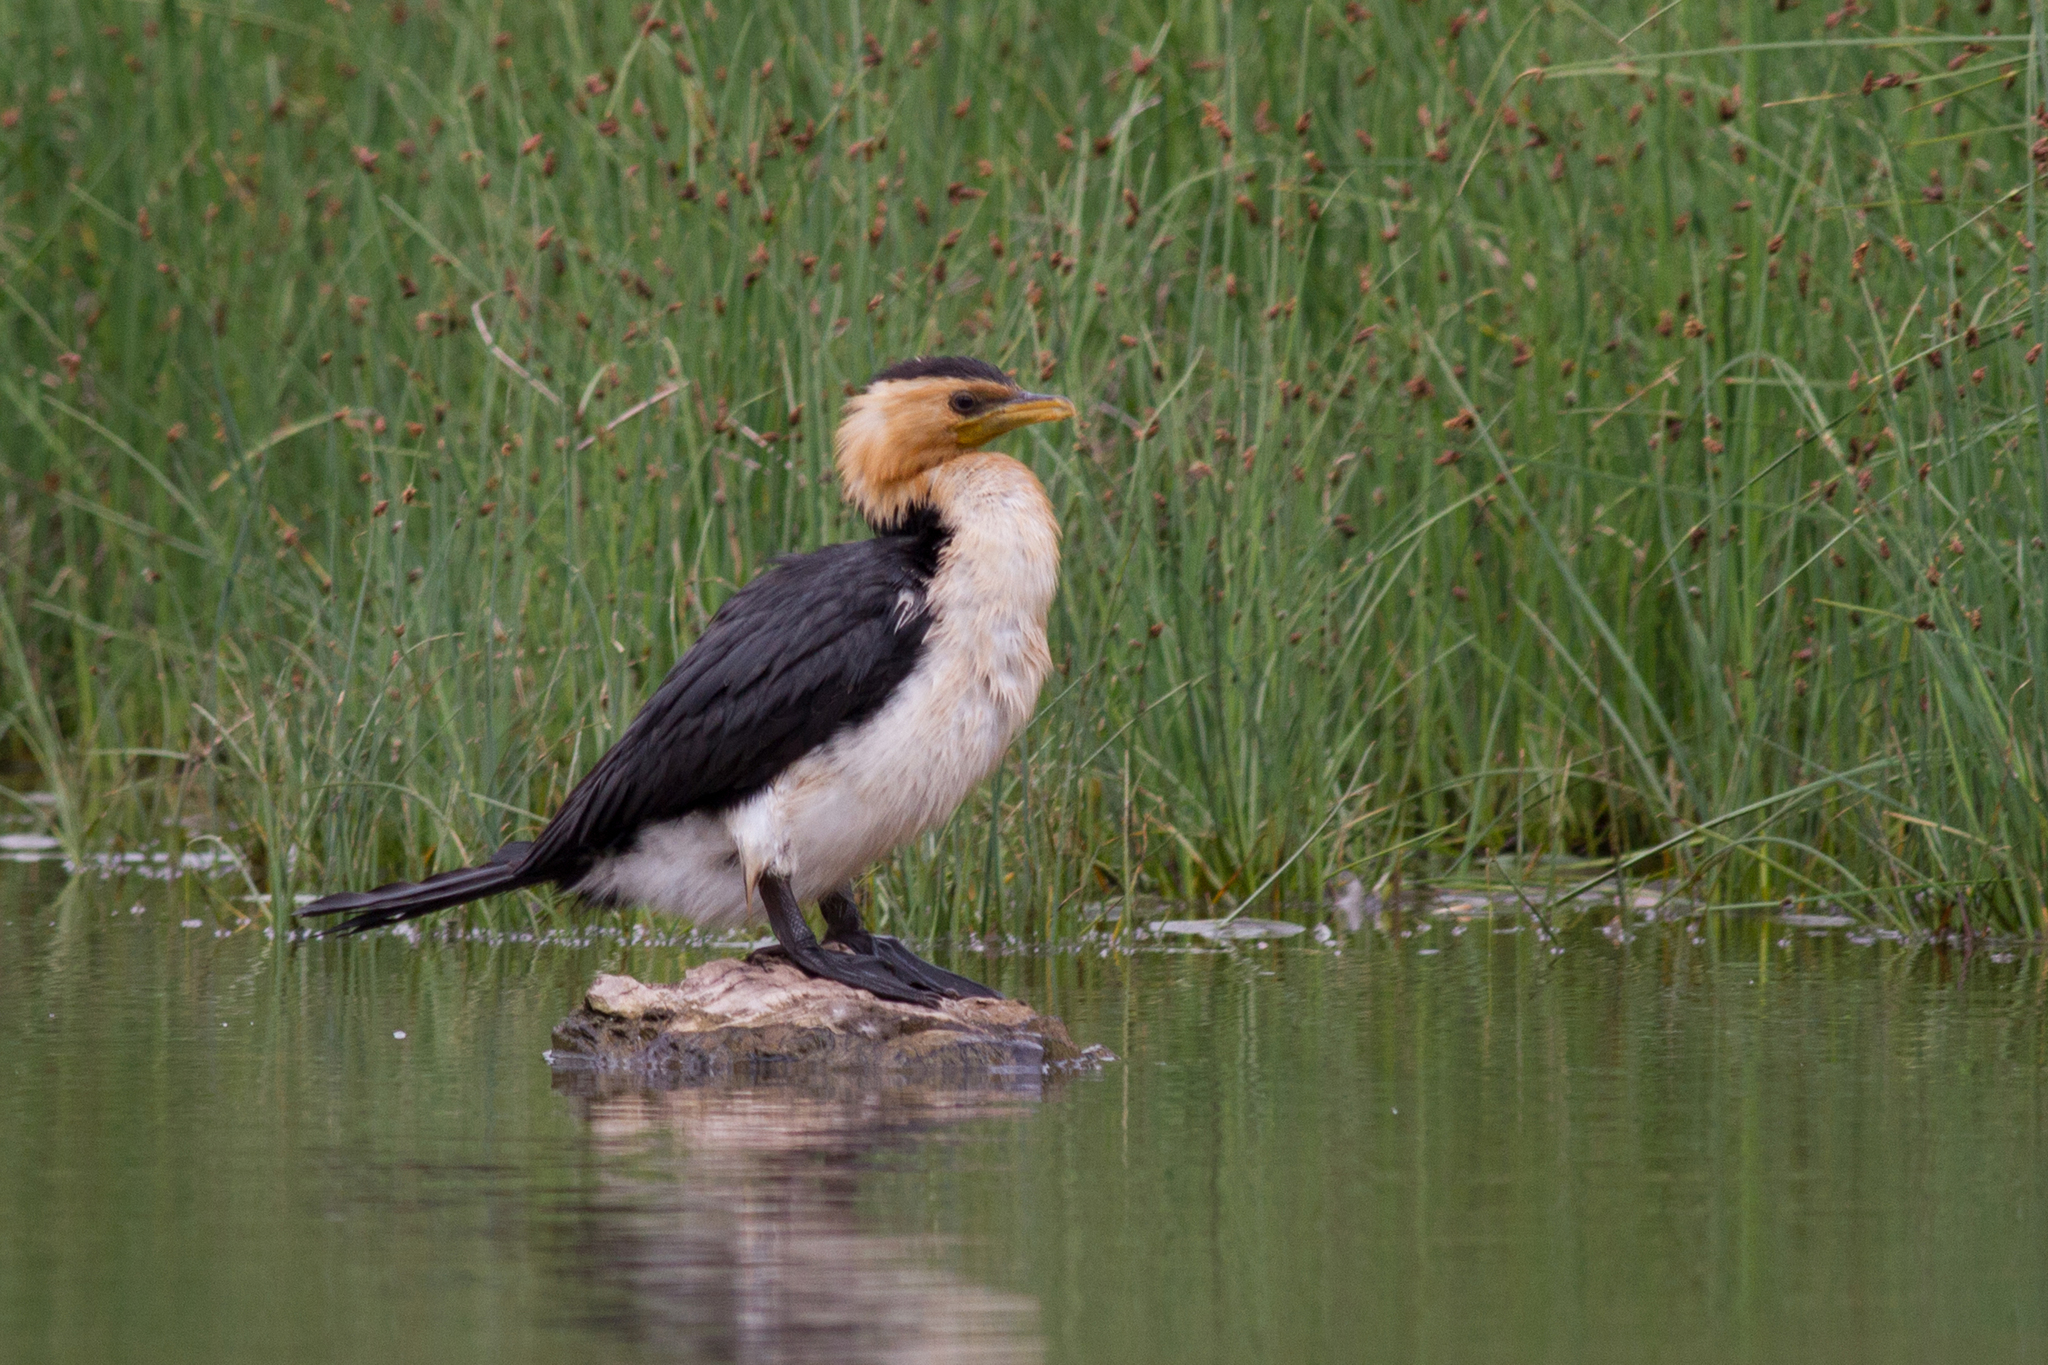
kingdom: Animalia
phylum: Chordata
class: Aves
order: Suliformes
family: Phalacrocoracidae
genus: Microcarbo
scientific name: Microcarbo melanoleucos
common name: Little pied cormorant
